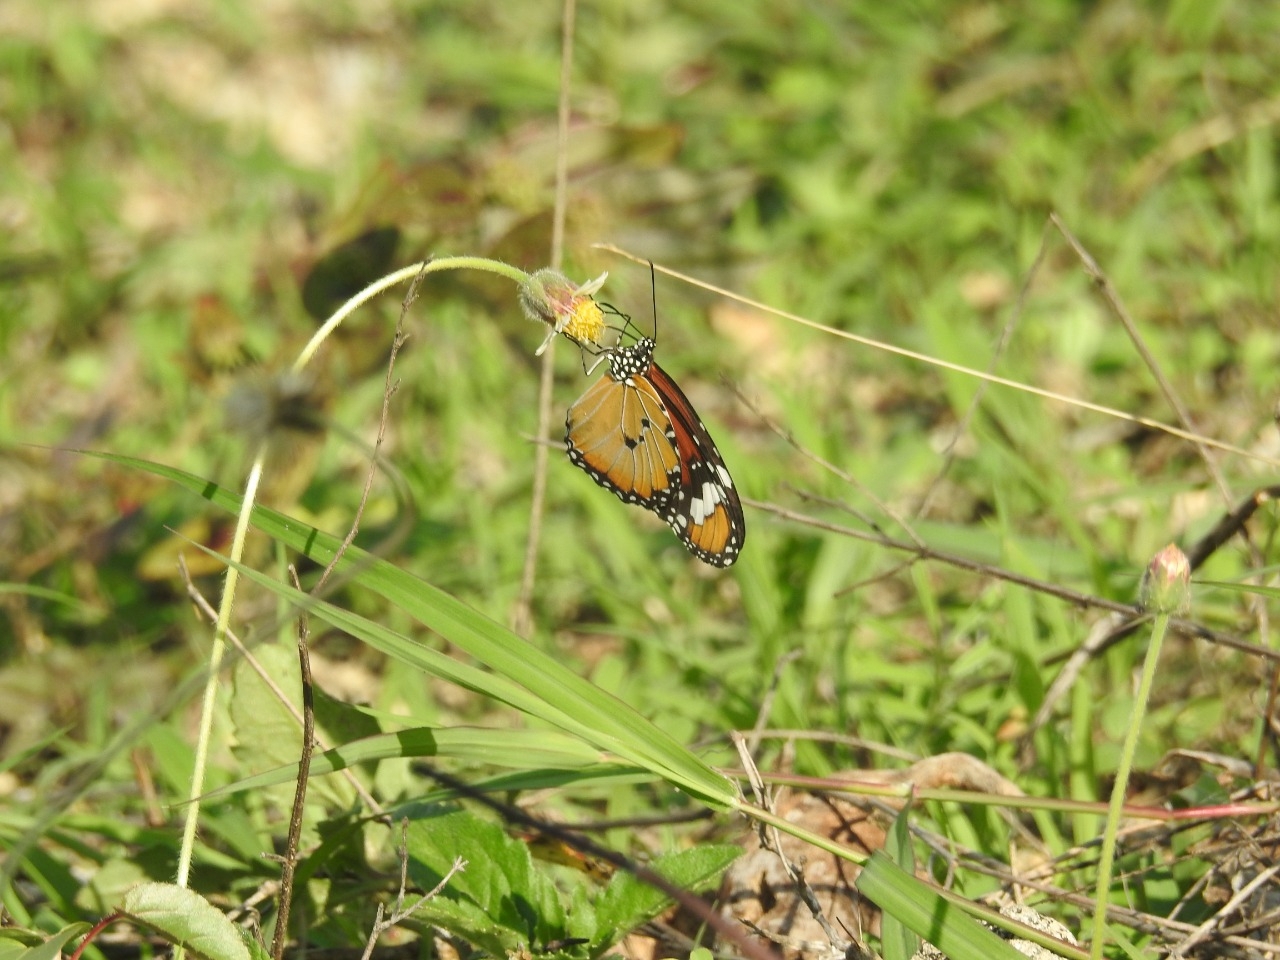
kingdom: Animalia
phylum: Arthropoda
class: Insecta
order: Lepidoptera
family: Nymphalidae
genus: Danaus
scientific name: Danaus chrysippus
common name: Plain tiger
